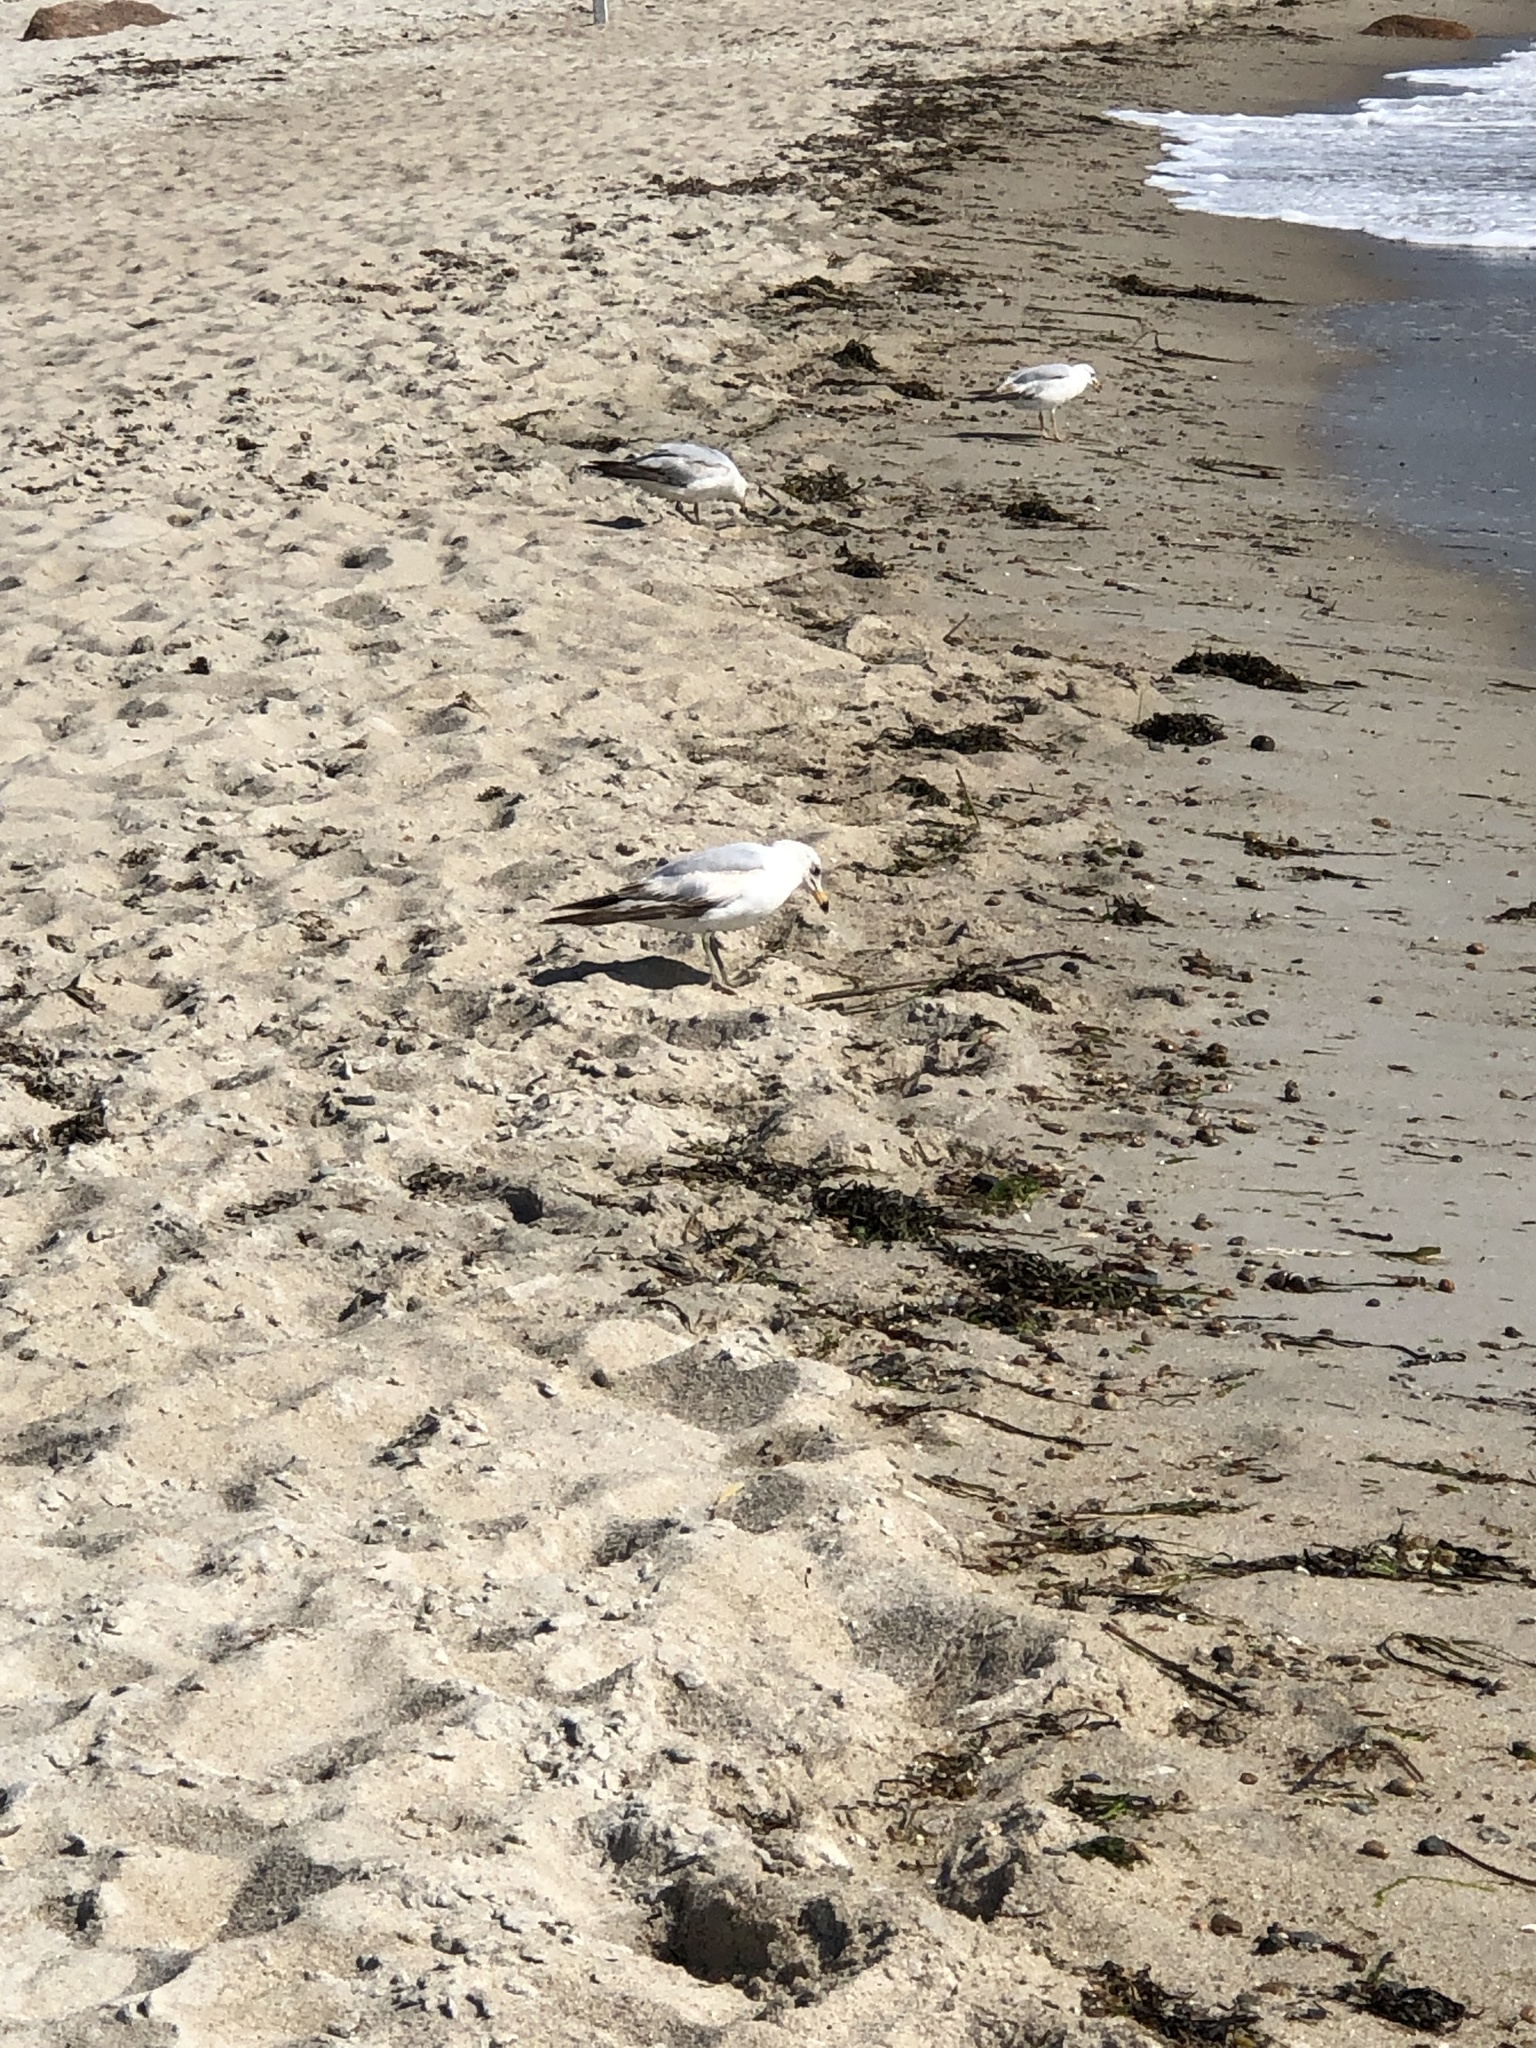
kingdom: Animalia
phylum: Chordata
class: Aves
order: Charadriiformes
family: Laridae
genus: Larus
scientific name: Larus delawarensis
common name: Ring-billed gull
